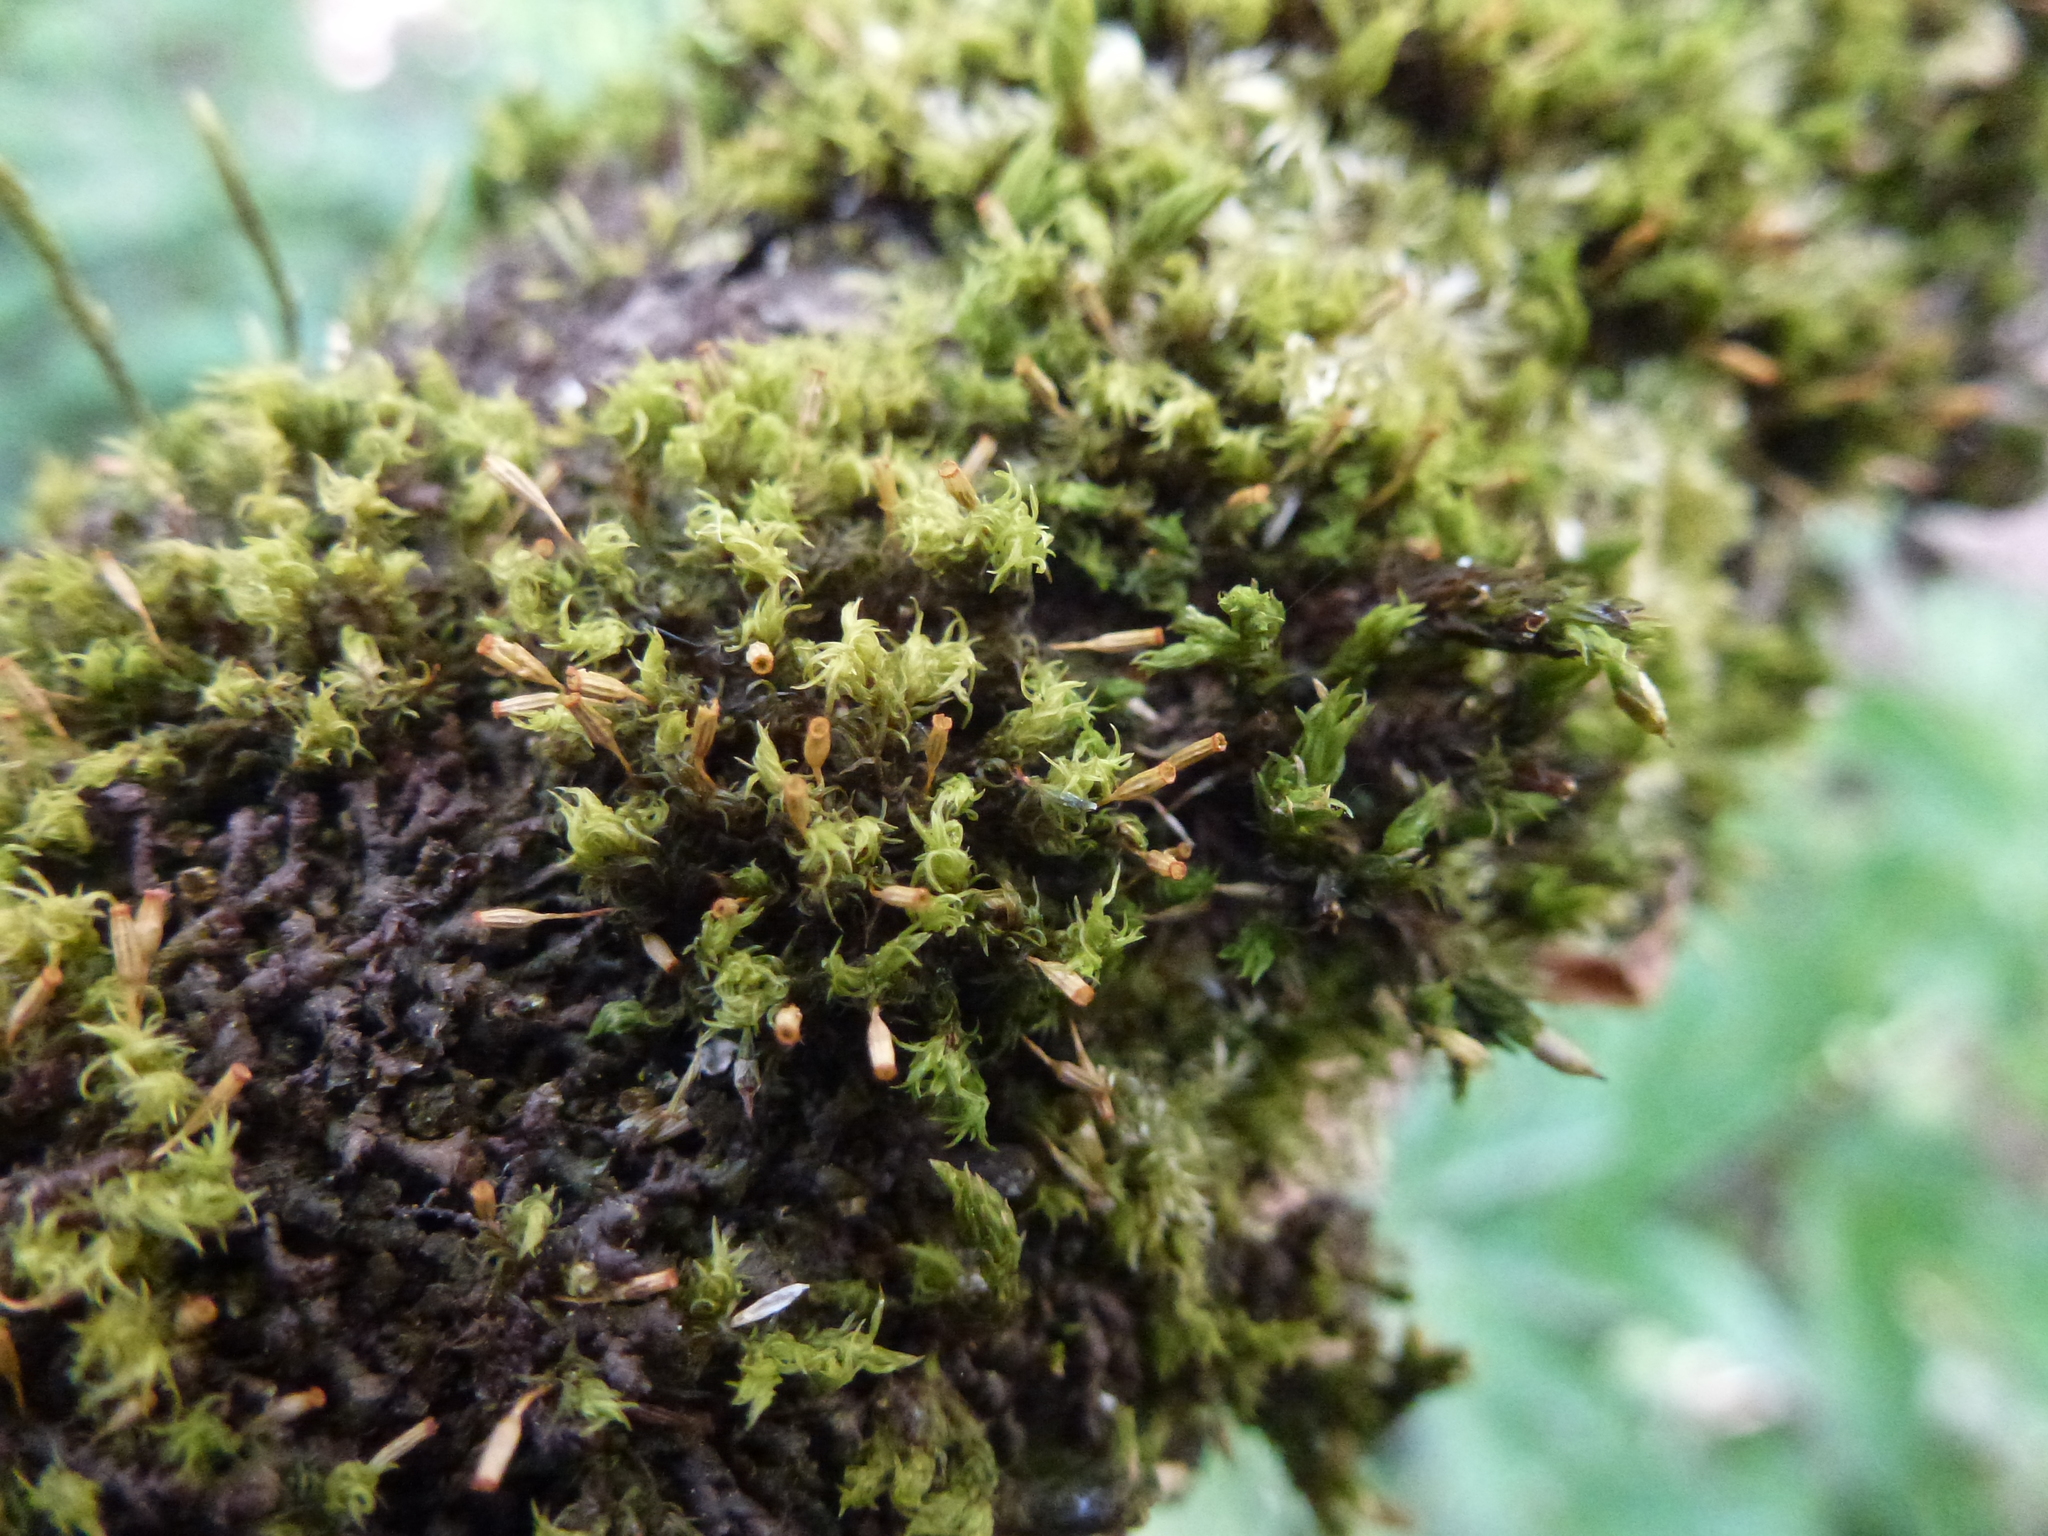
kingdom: Plantae
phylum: Bryophyta
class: Bryopsida
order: Orthotrichales
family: Orthotrichaceae
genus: Orthotrichum
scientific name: Orthotrichum pulchellum
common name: Elegant bristle-moss
